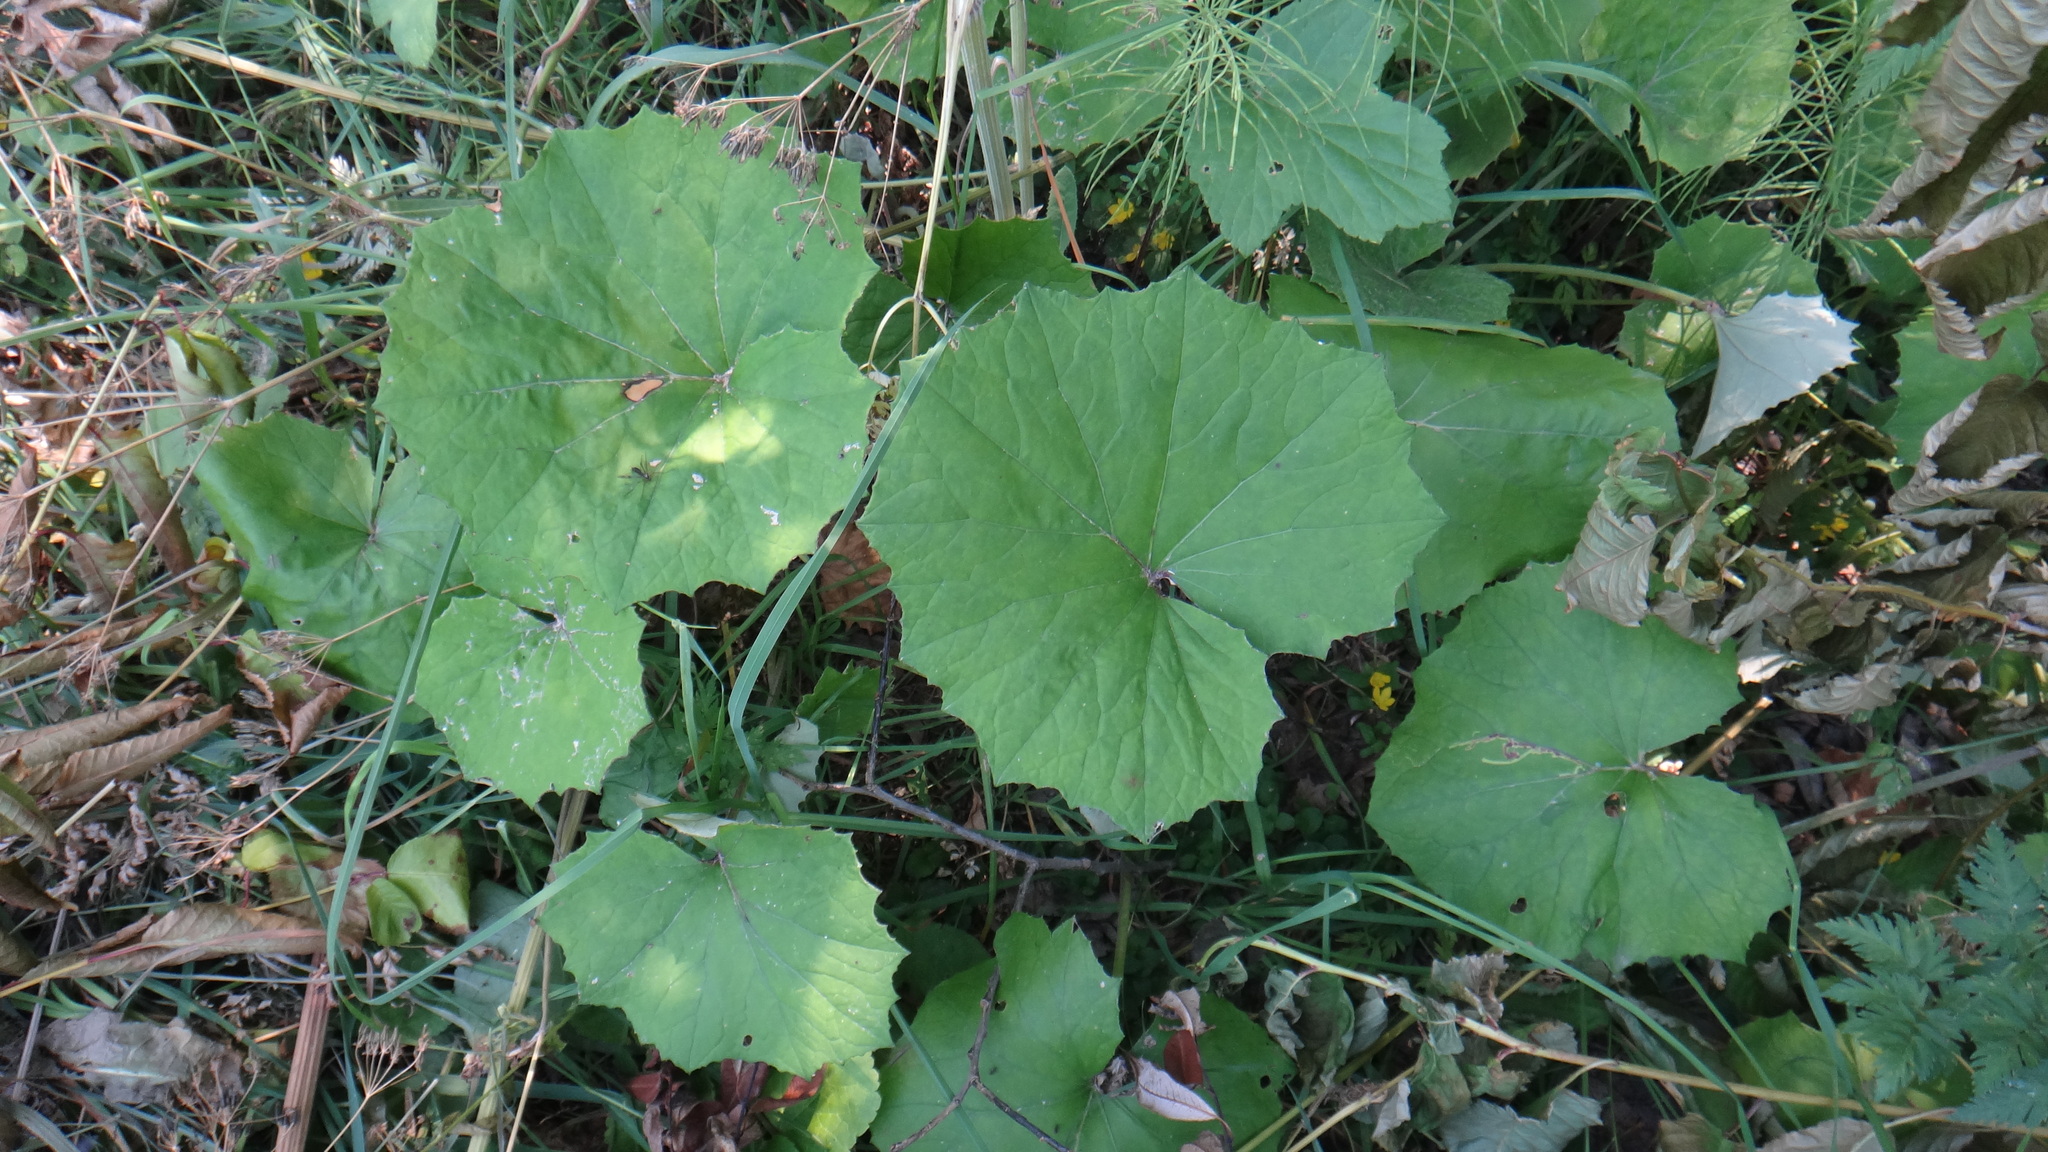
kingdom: Plantae
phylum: Tracheophyta
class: Magnoliopsida
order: Asterales
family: Asteraceae
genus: Tussilago
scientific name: Tussilago farfara
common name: Coltsfoot
